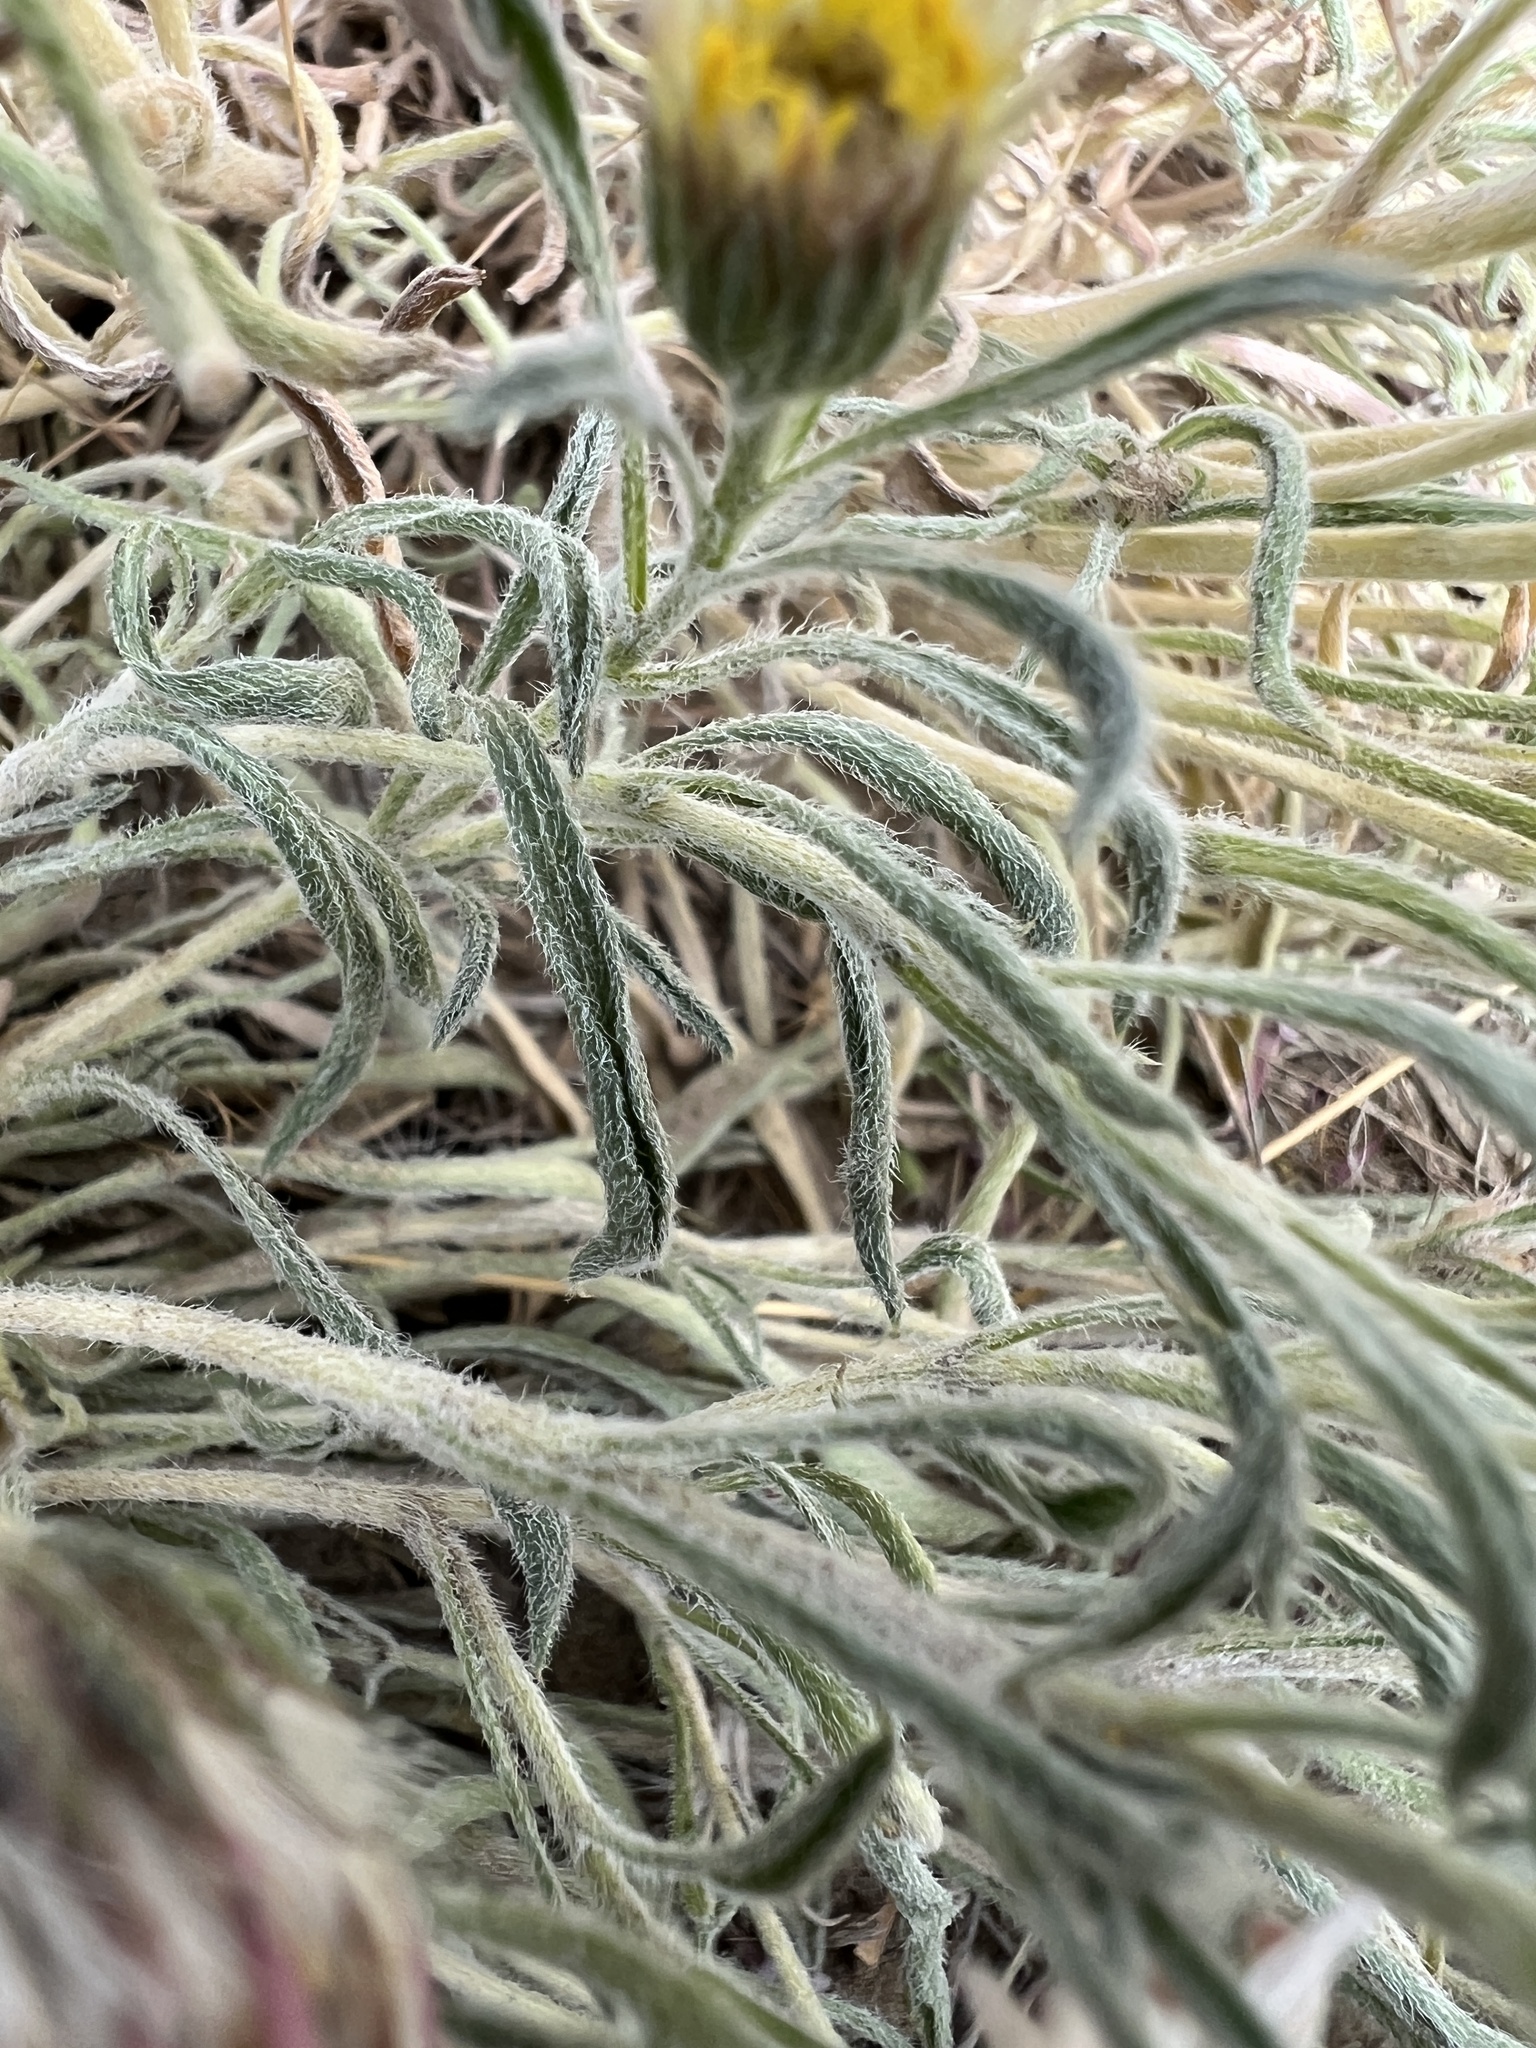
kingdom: Plantae
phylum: Tracheophyta
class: Magnoliopsida
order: Asterales
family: Asteraceae
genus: Townsendia
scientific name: Townsendia florifera
